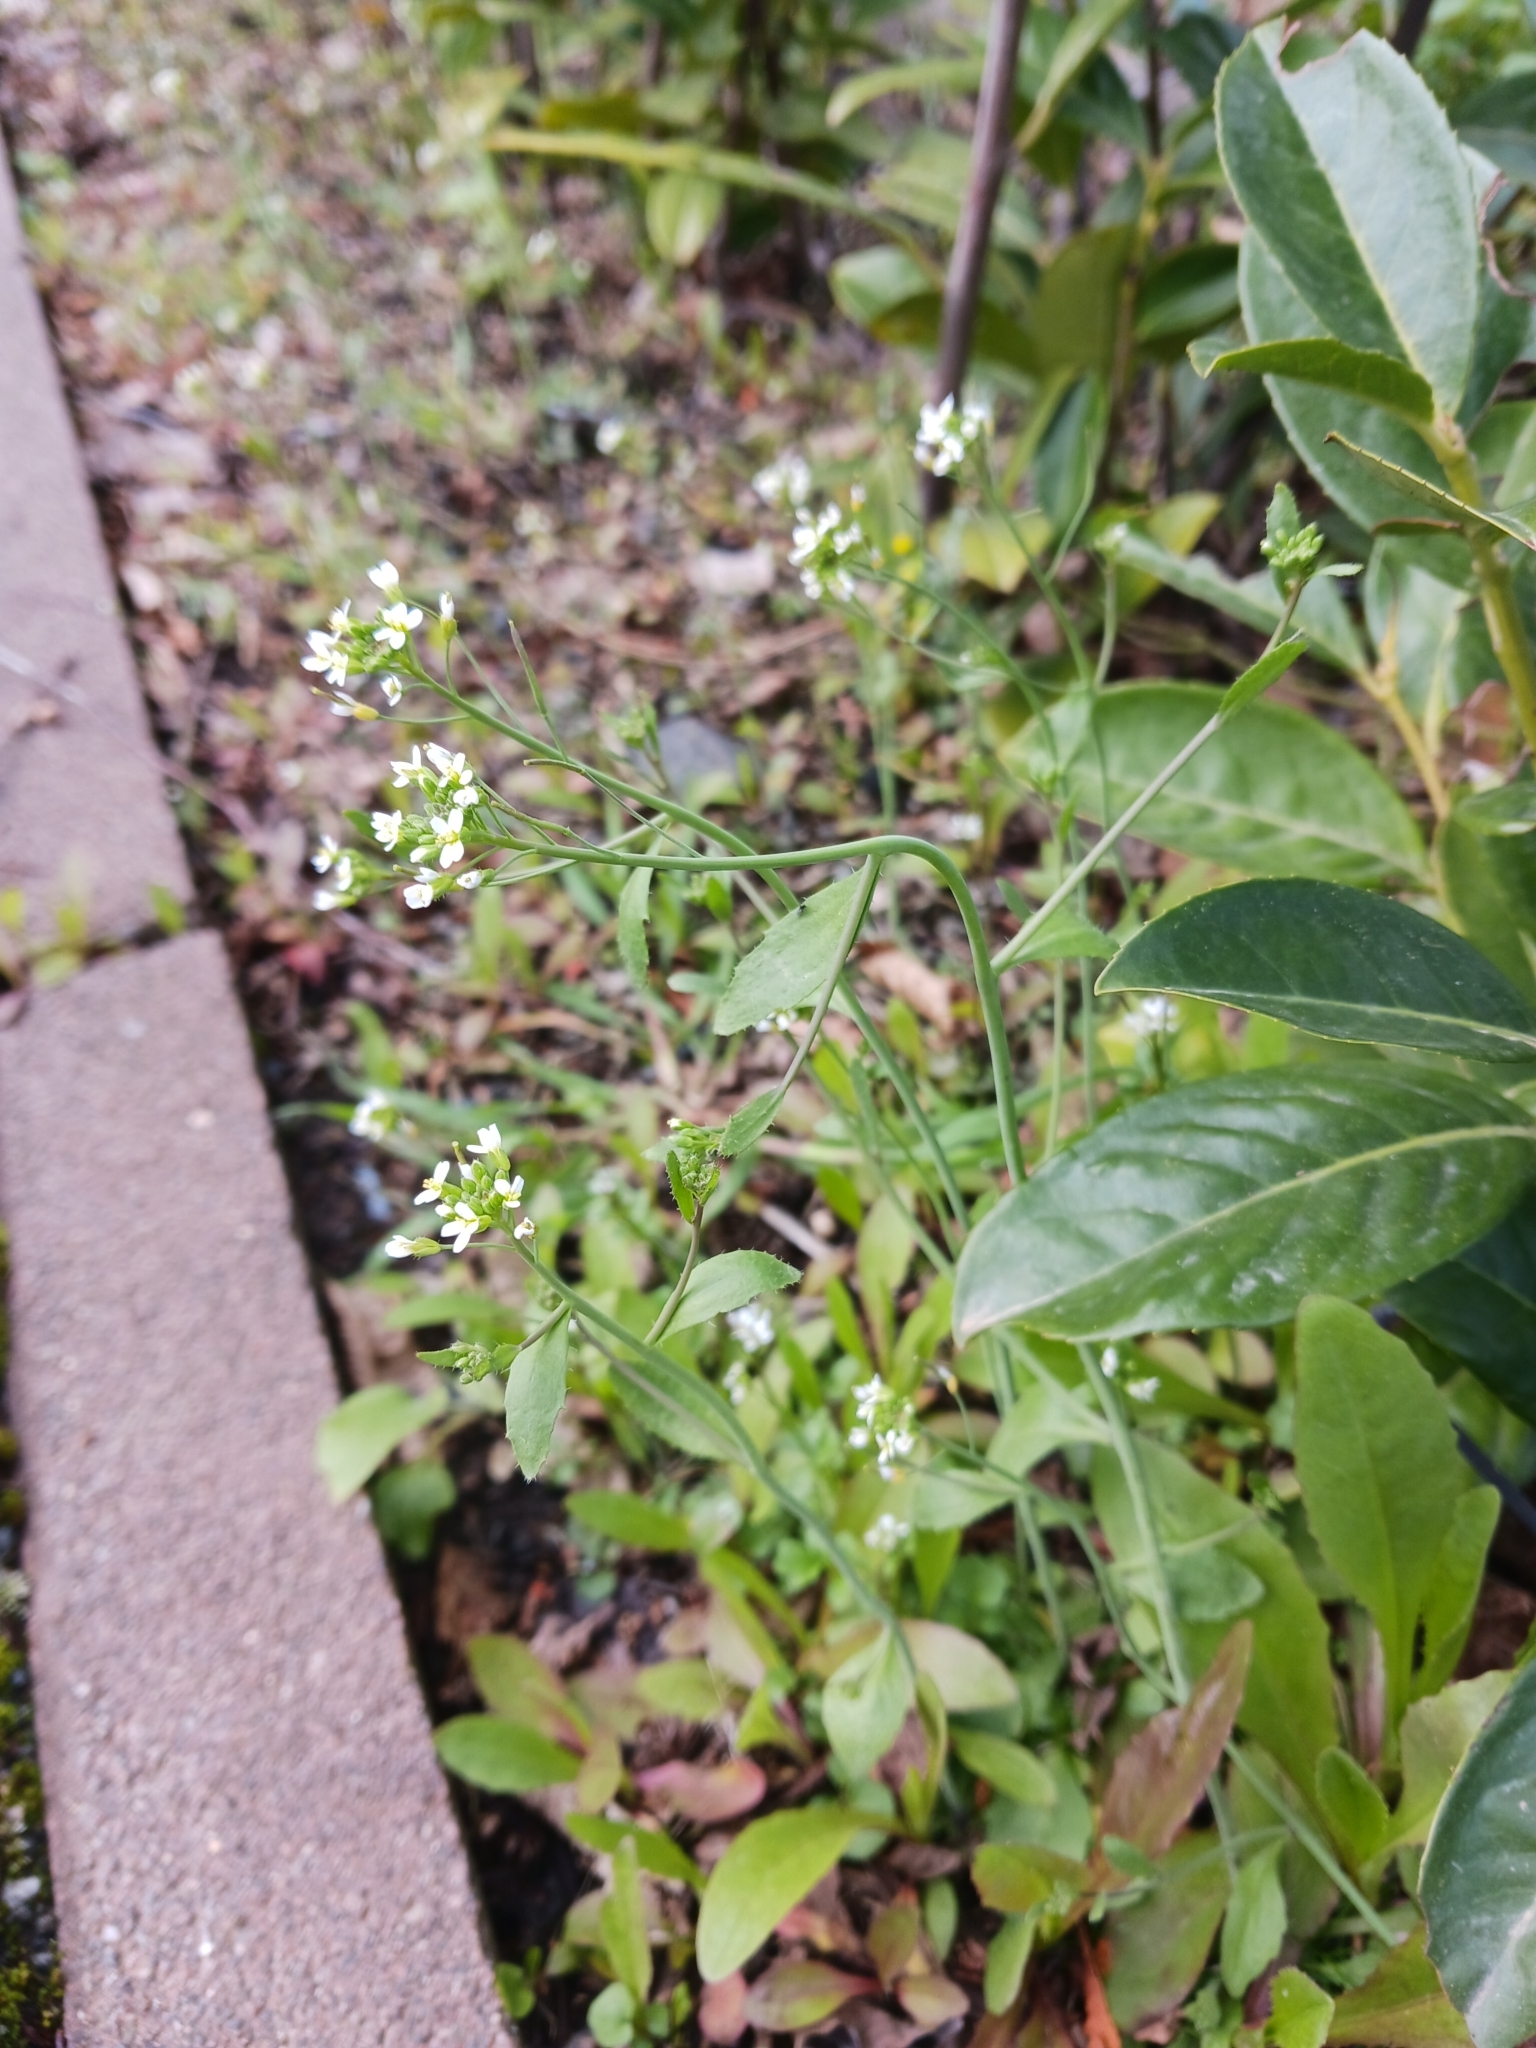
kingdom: Plantae
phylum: Tracheophyta
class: Magnoliopsida
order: Brassicales
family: Brassicaceae
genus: Arabidopsis
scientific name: Arabidopsis thaliana
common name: Thale cress
